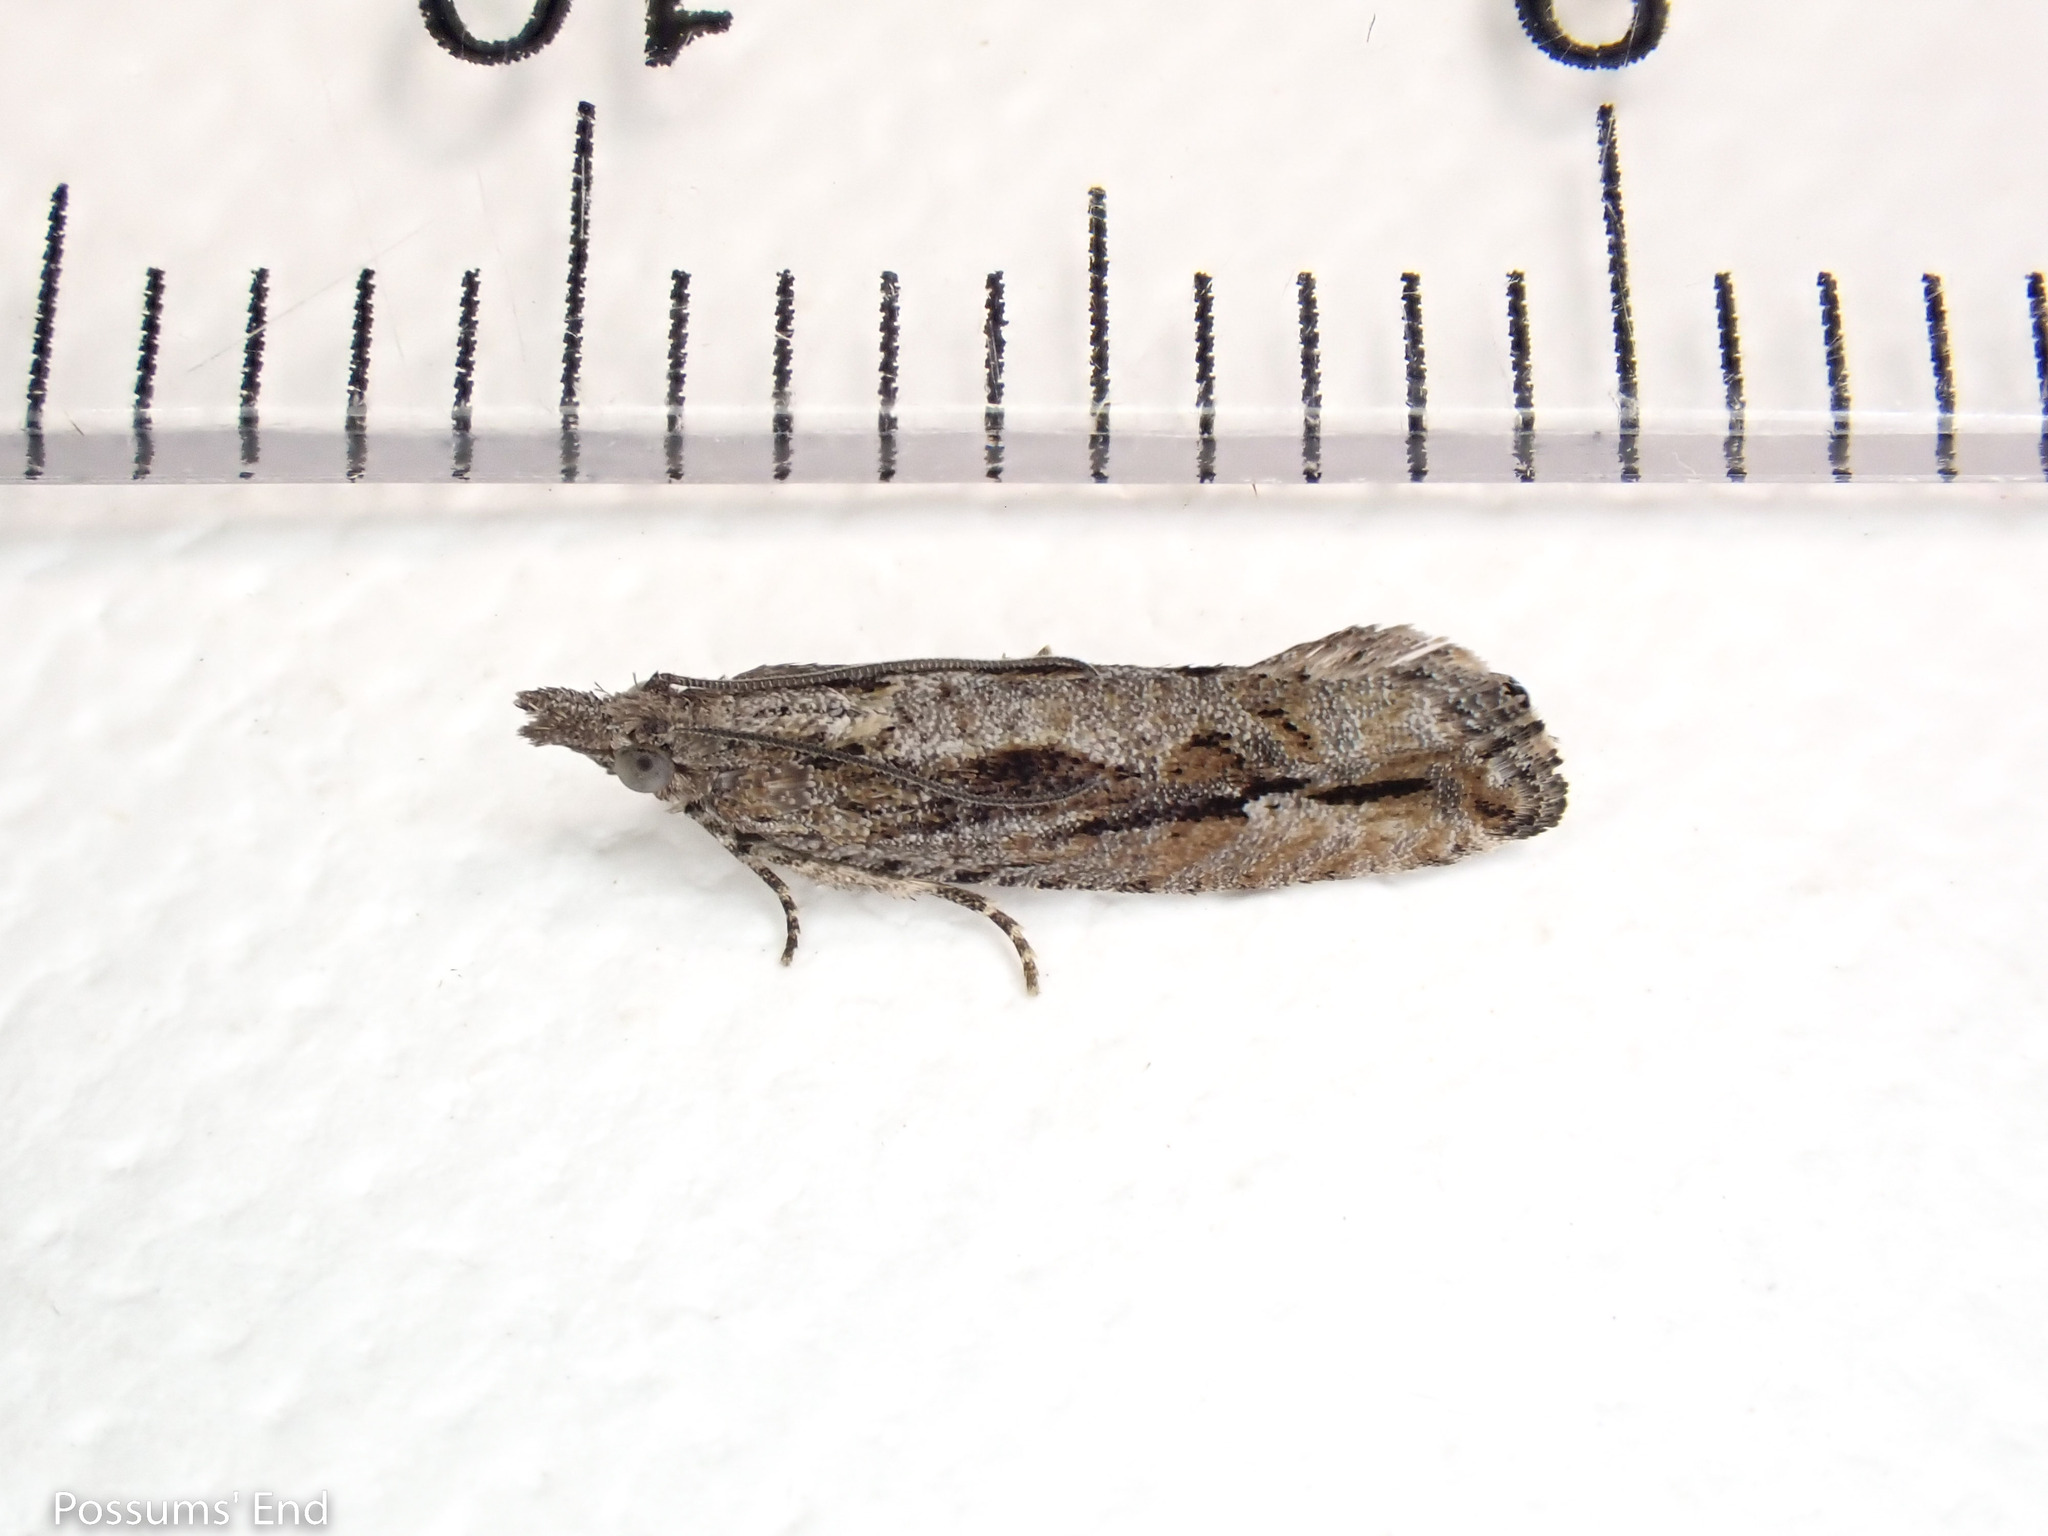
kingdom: Animalia
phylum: Arthropoda
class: Insecta
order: Lepidoptera
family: Tortricidae
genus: Strepsicrates
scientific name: Strepsicrates ejectana
